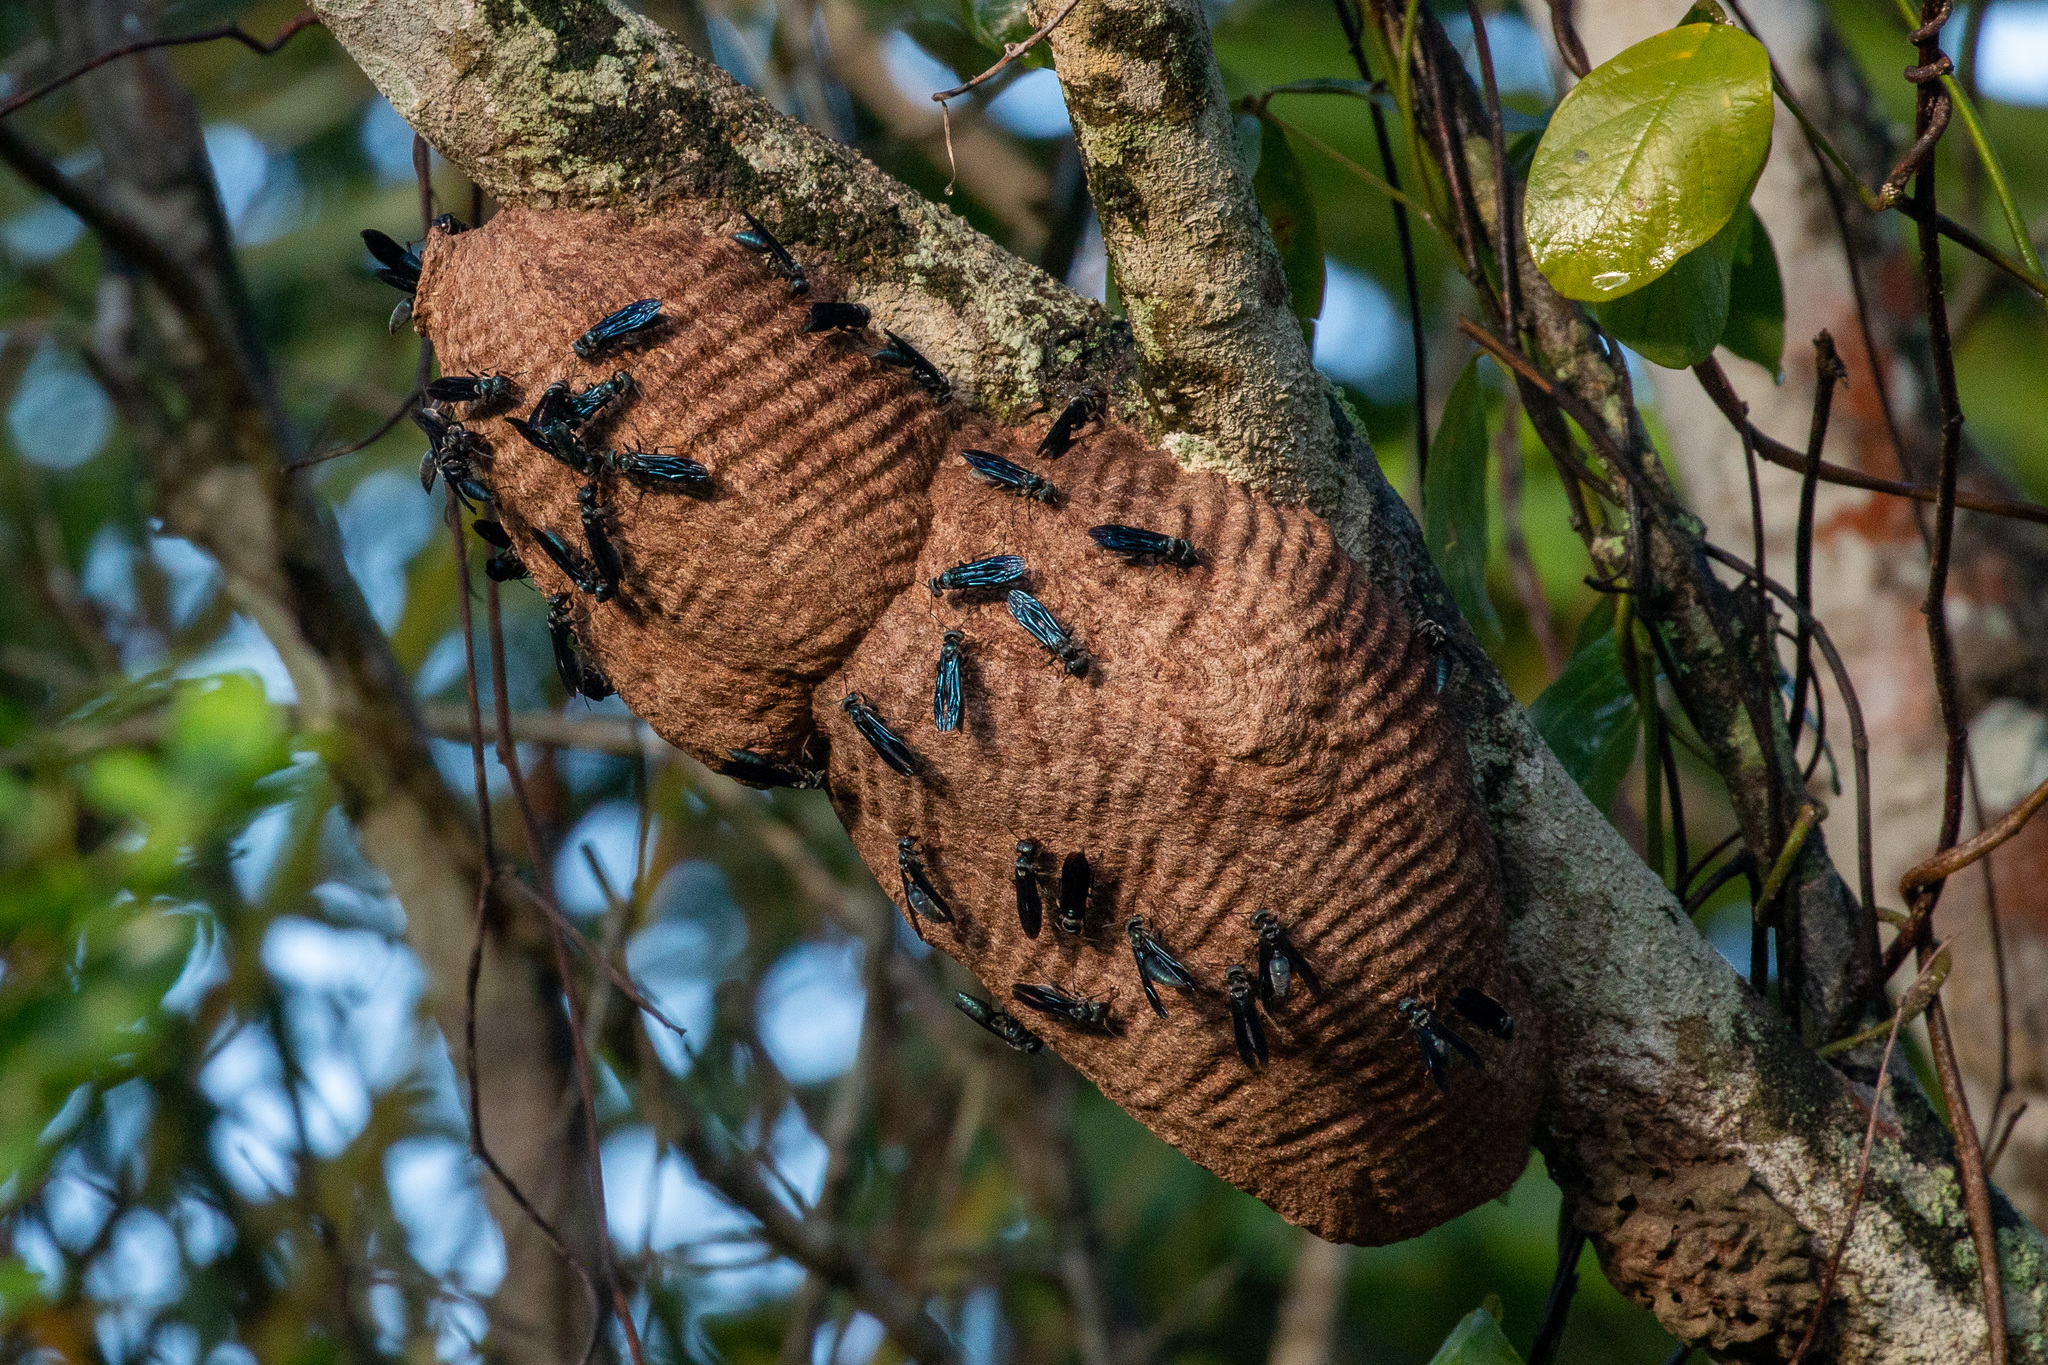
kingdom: Animalia
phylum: Arthropoda
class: Insecta
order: Hymenoptera
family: Vespidae
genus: Synoeca
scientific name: Synoeca ilheensis
